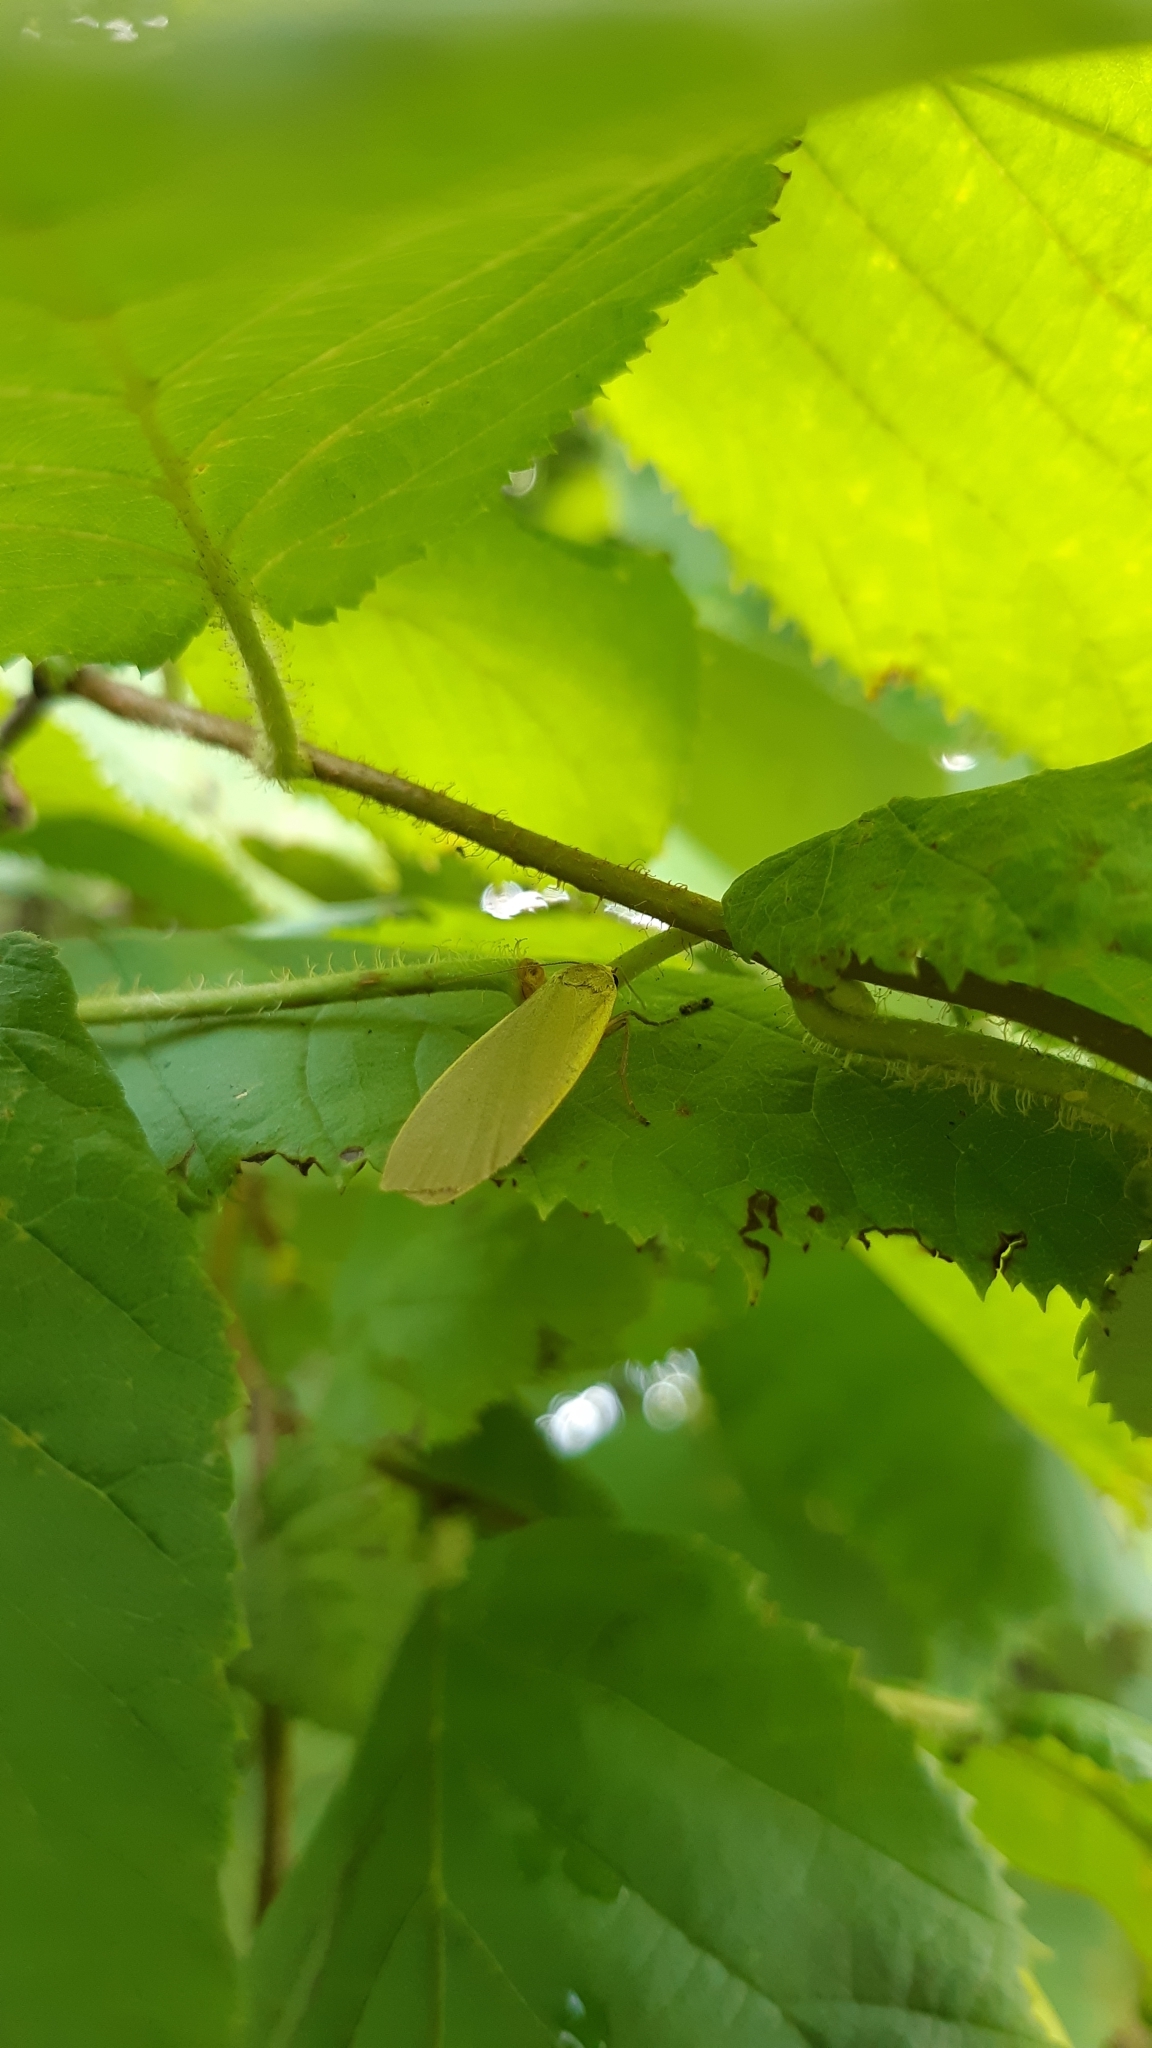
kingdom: Animalia
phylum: Arthropoda
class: Insecta
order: Lepidoptera
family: Erebidae
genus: Collita
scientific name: Collita griseola
